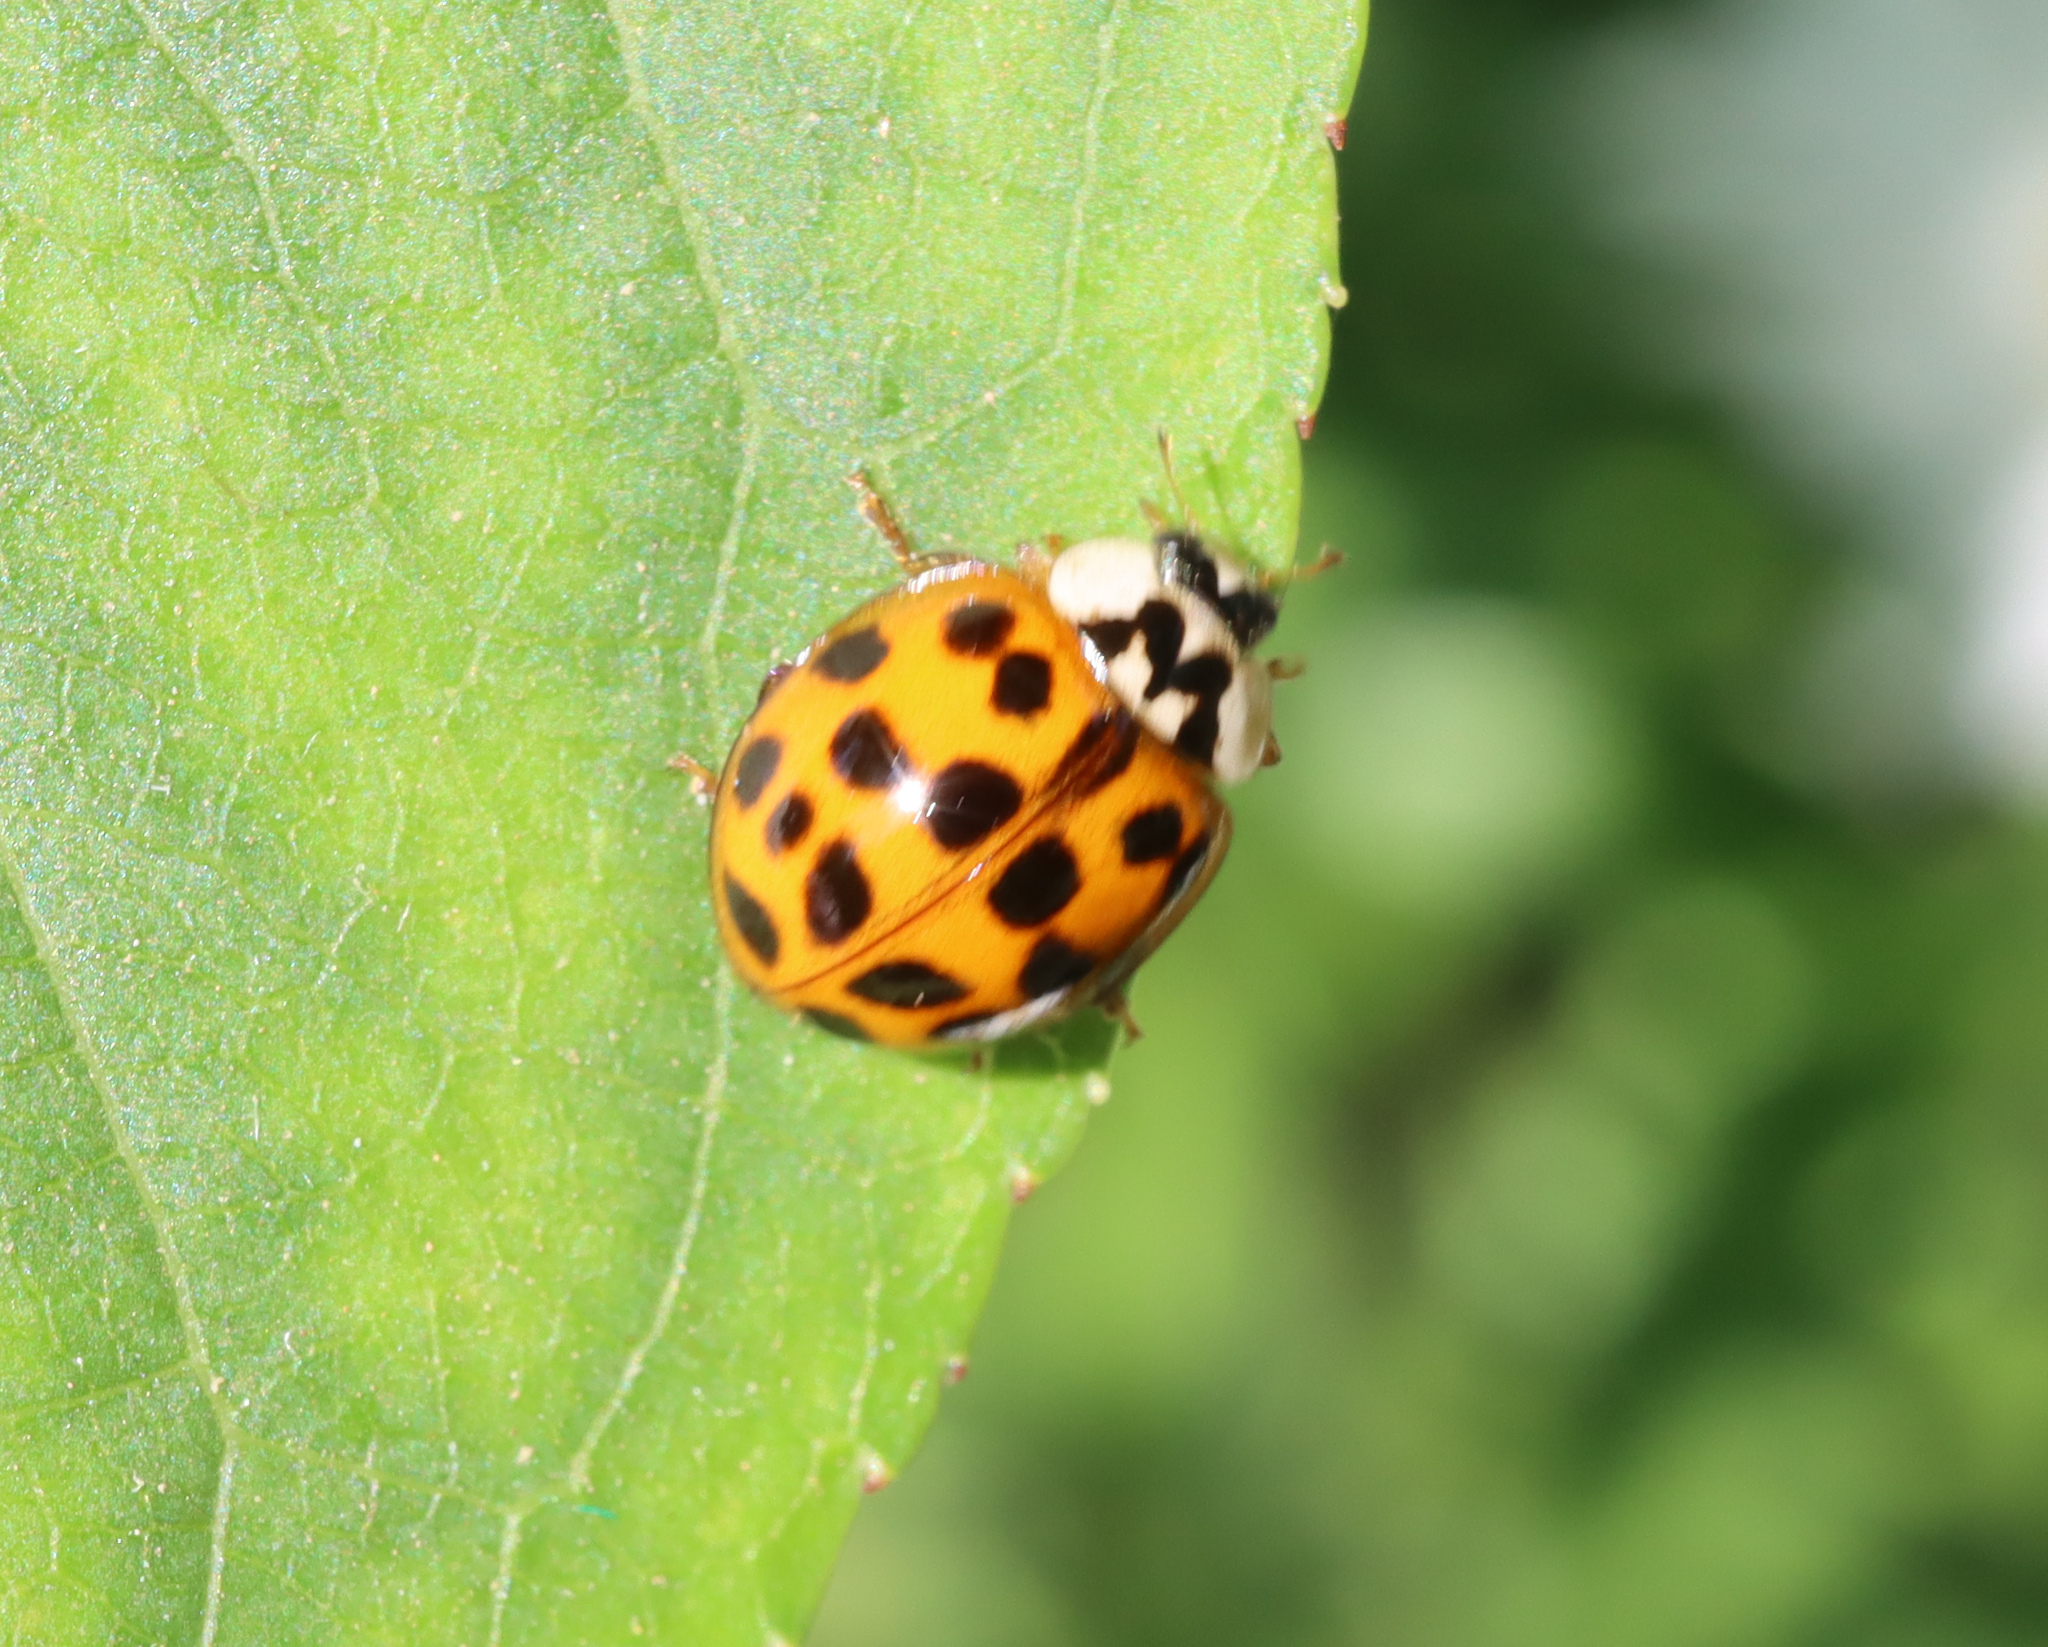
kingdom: Animalia
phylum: Arthropoda
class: Insecta
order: Coleoptera
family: Coccinellidae
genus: Harmonia
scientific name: Harmonia axyridis
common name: Harlequin ladybird
